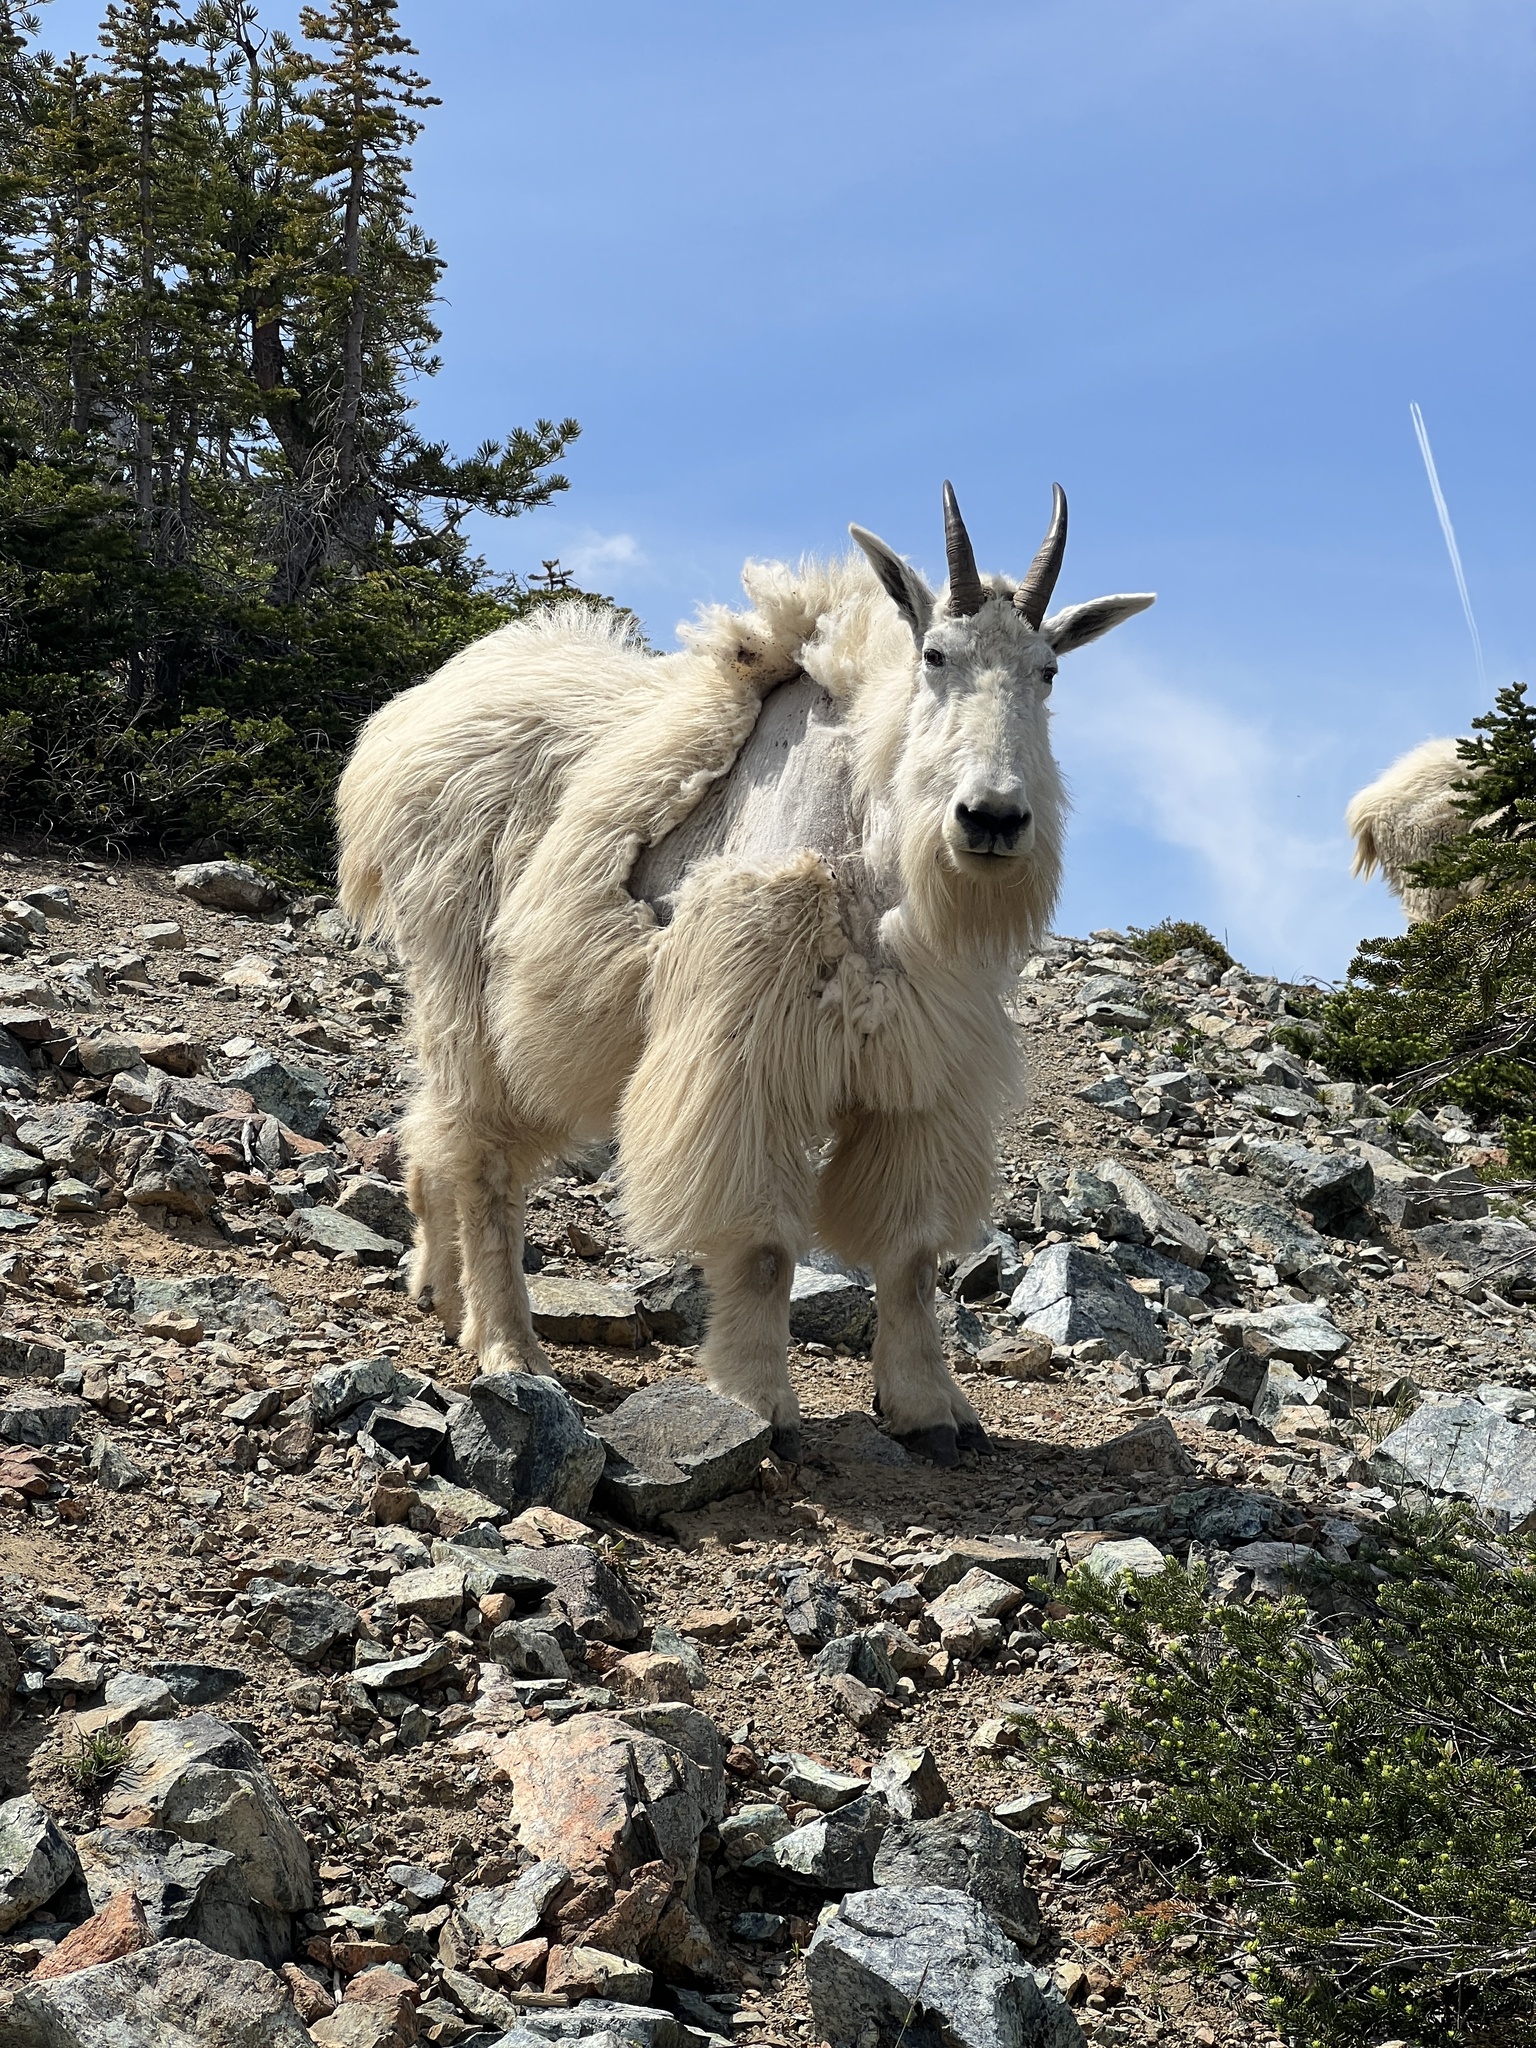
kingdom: Animalia
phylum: Chordata
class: Mammalia
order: Artiodactyla
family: Bovidae
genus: Oreamnos
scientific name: Oreamnos americanus
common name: Mountain goat
